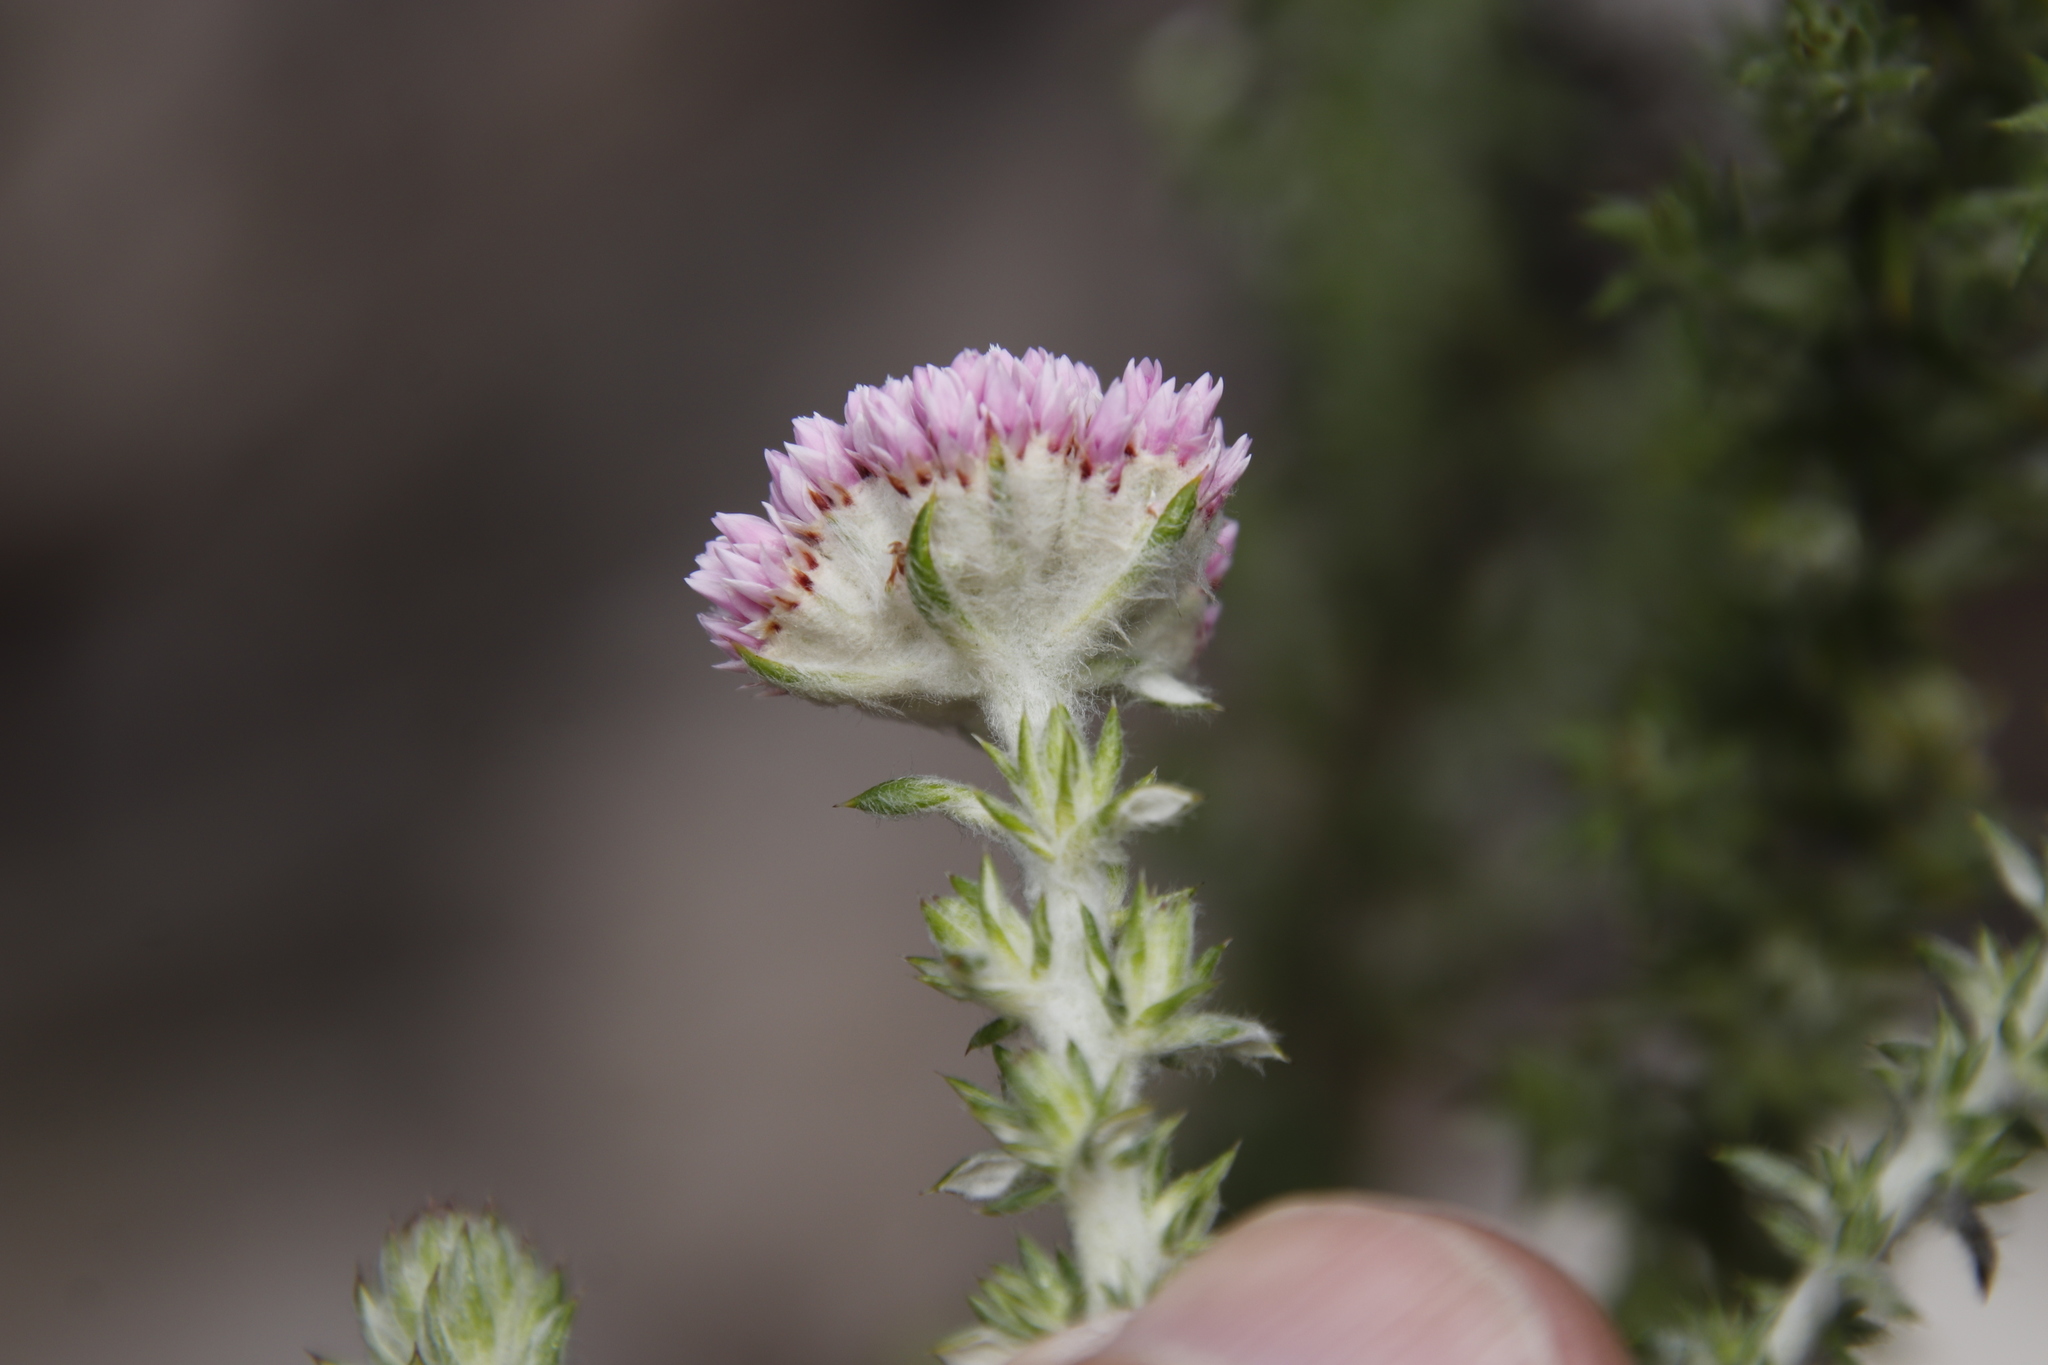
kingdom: Plantae
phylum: Tracheophyta
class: Magnoliopsida
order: Asterales
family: Asteraceae
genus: Metalasia
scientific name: Metalasia dregeana
